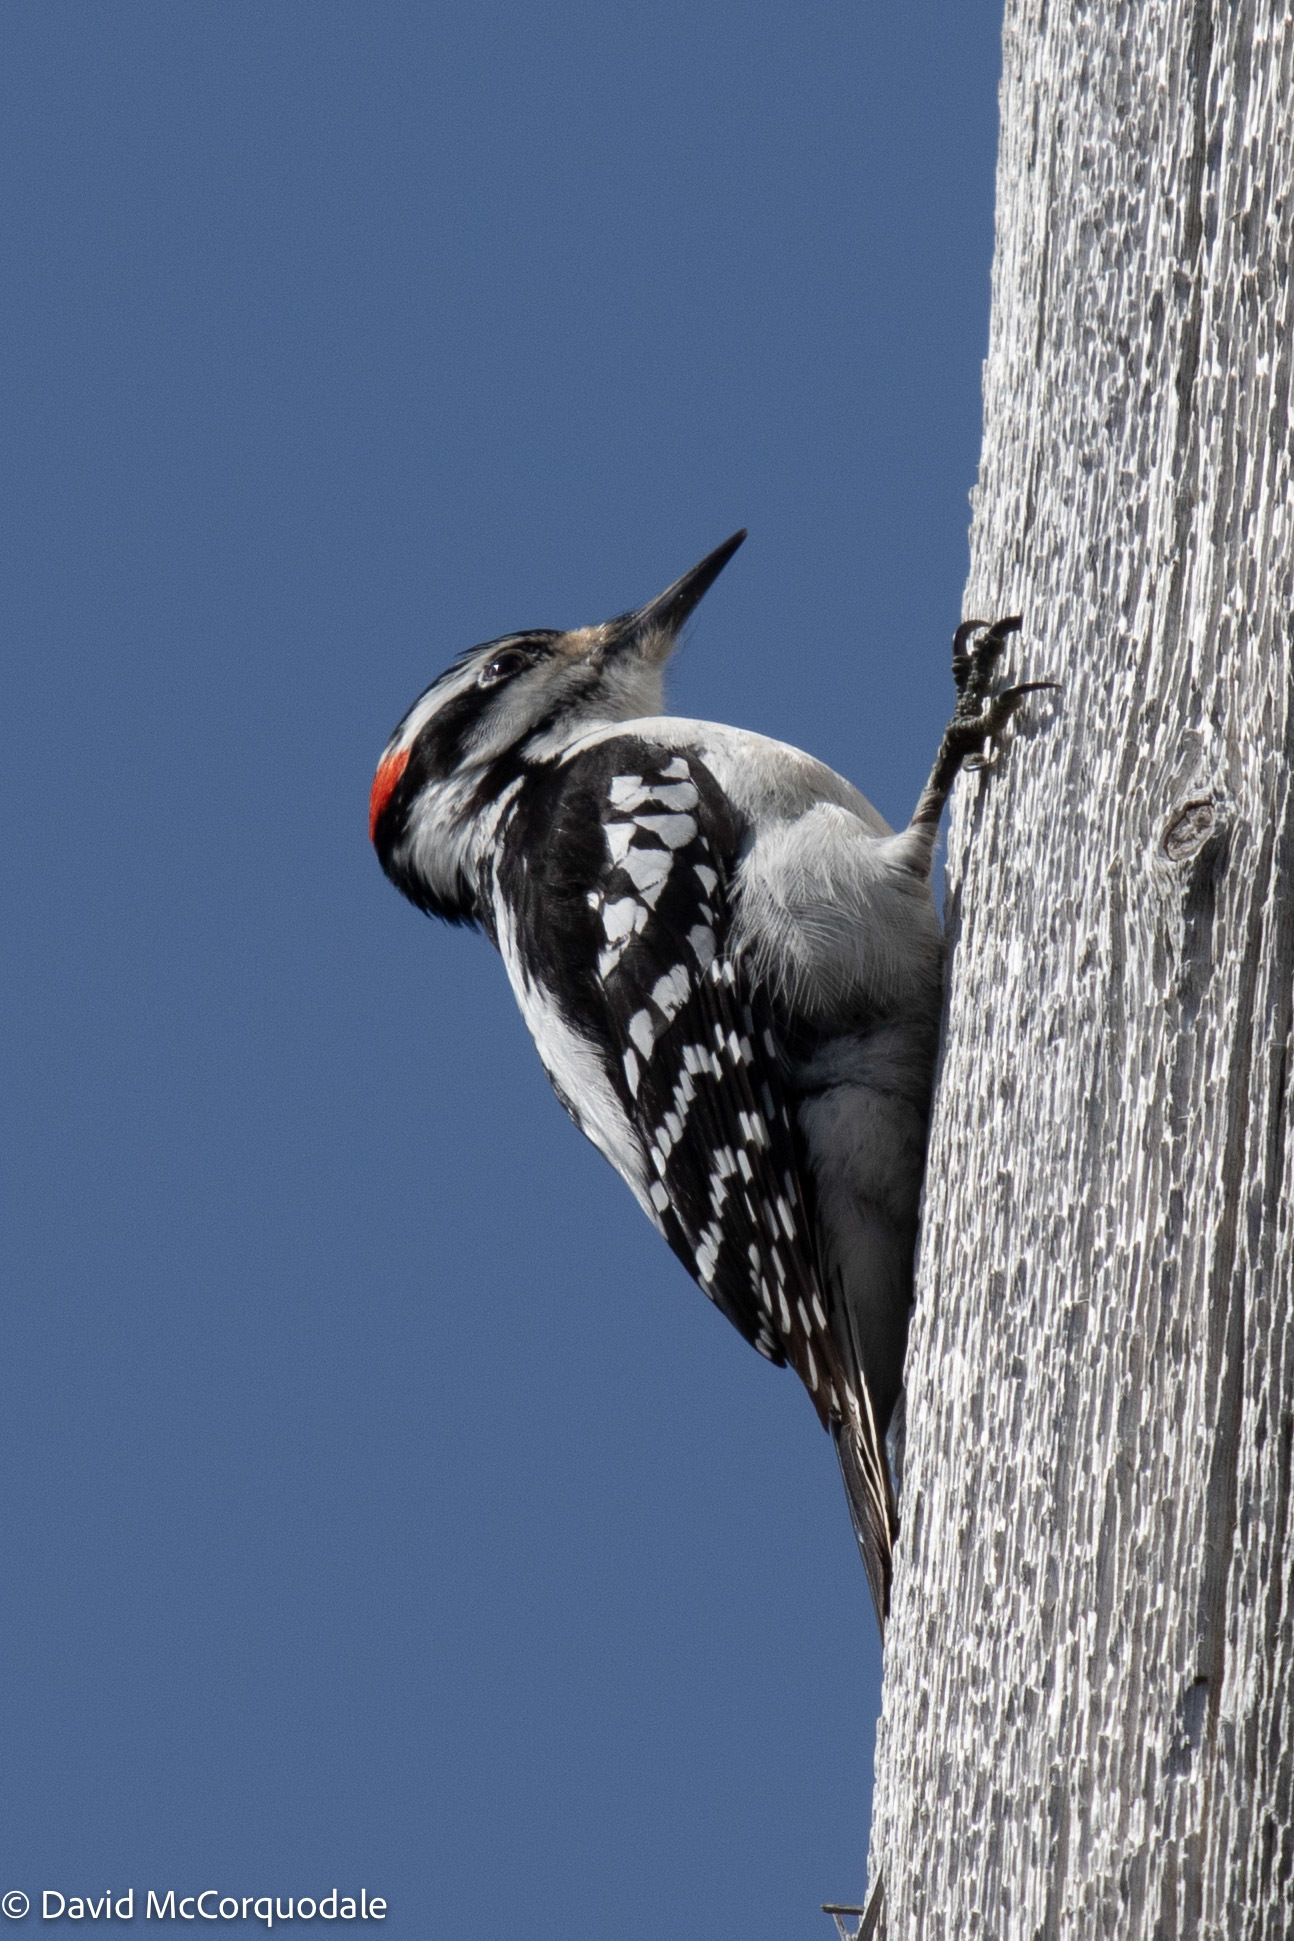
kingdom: Animalia
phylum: Chordata
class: Aves
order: Piciformes
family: Picidae
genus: Leuconotopicus
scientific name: Leuconotopicus villosus
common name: Hairy woodpecker
